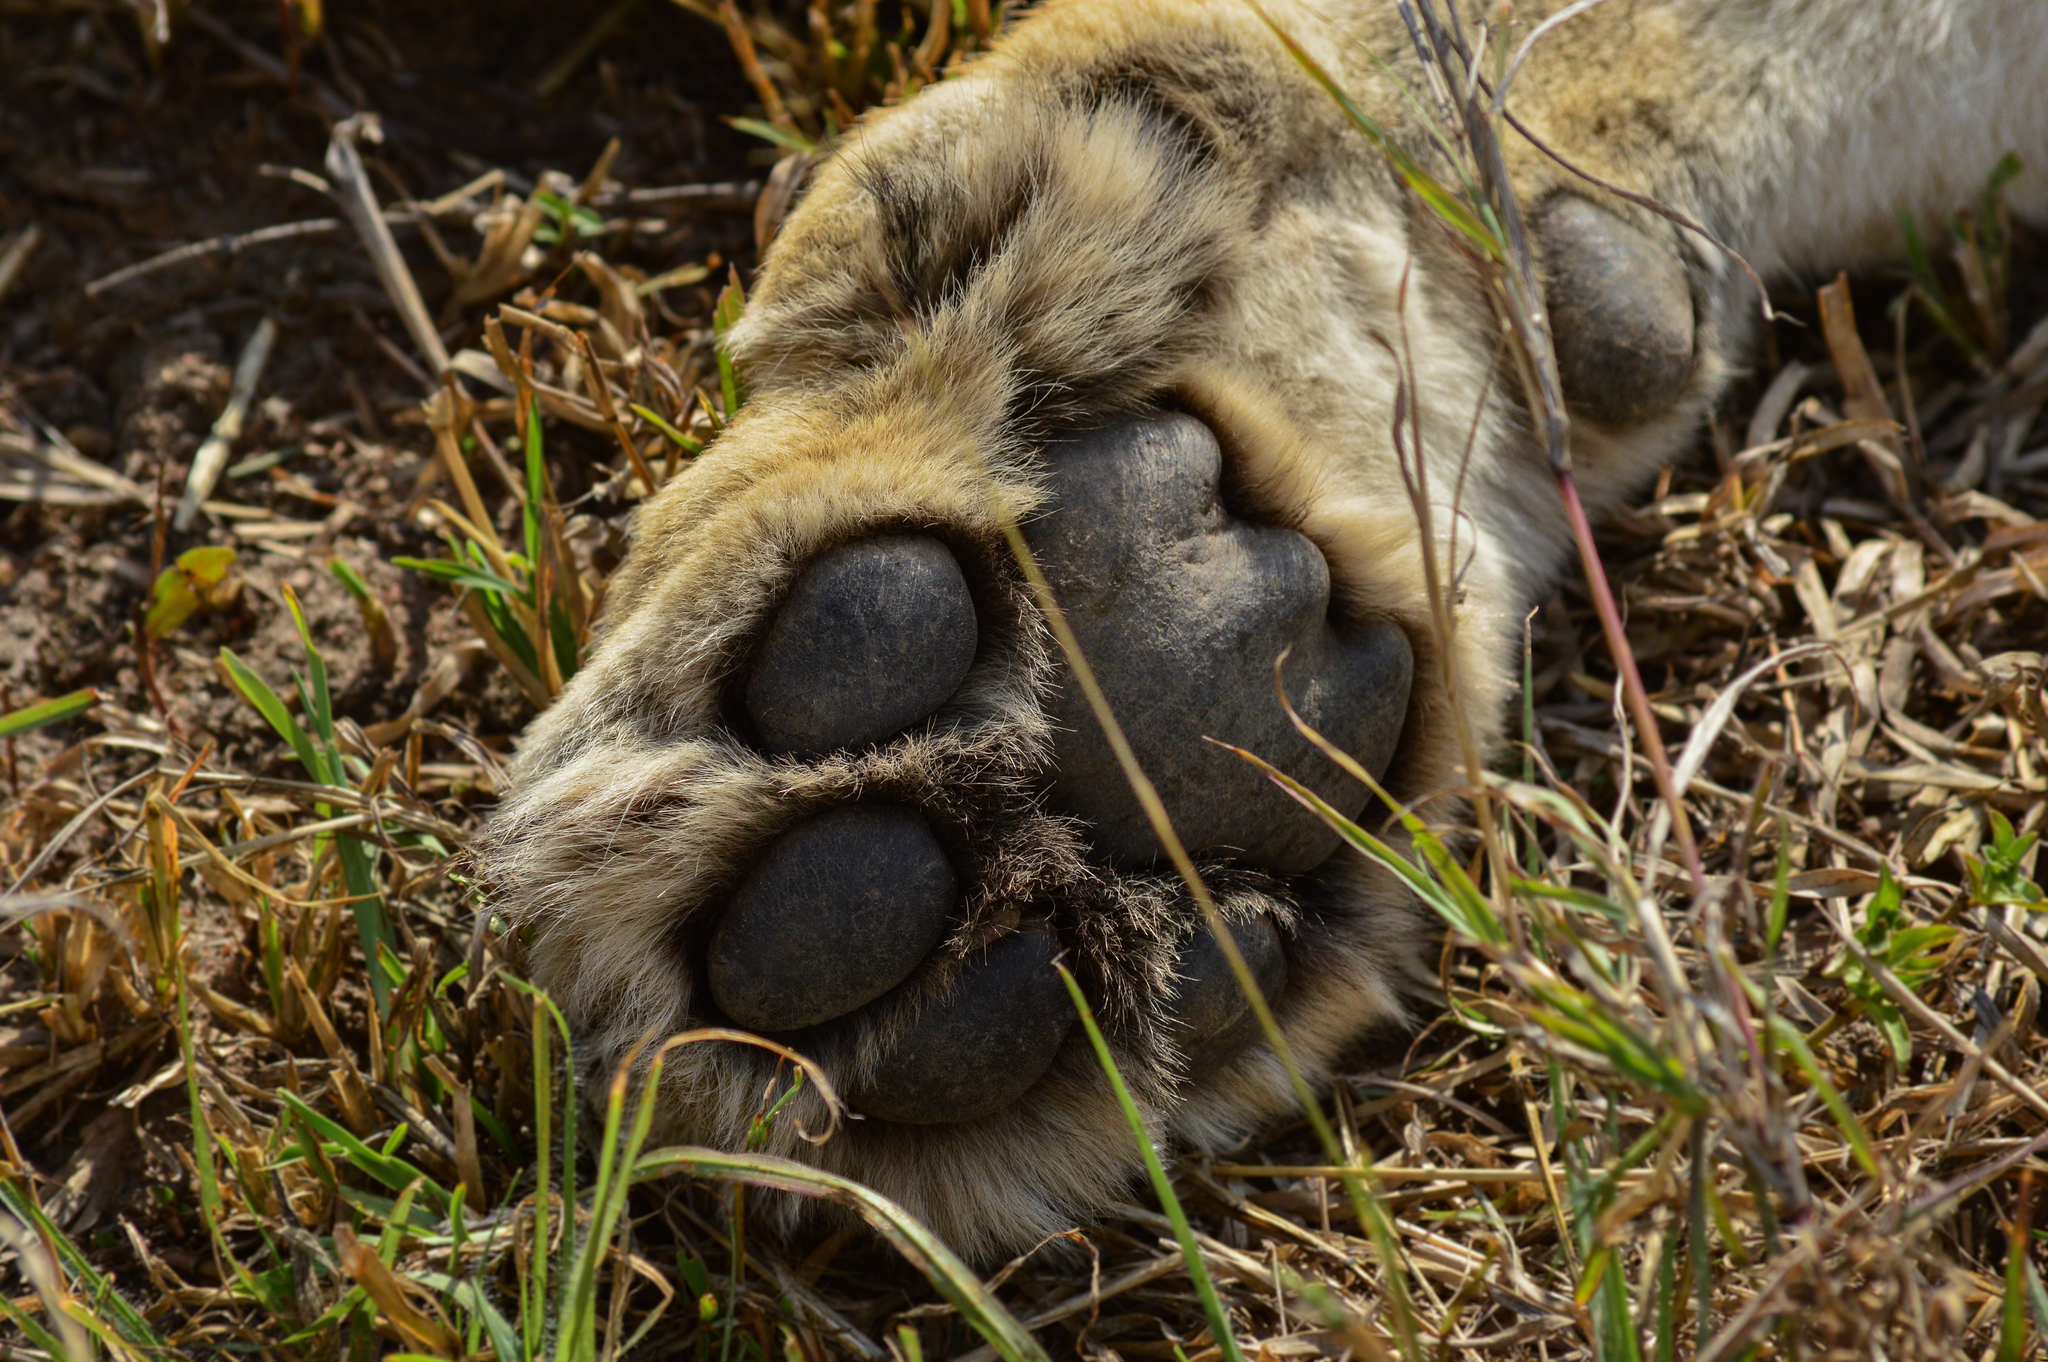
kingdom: Animalia
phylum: Chordata
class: Mammalia
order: Carnivora
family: Felidae
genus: Panthera
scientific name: Panthera leo
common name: Lion
